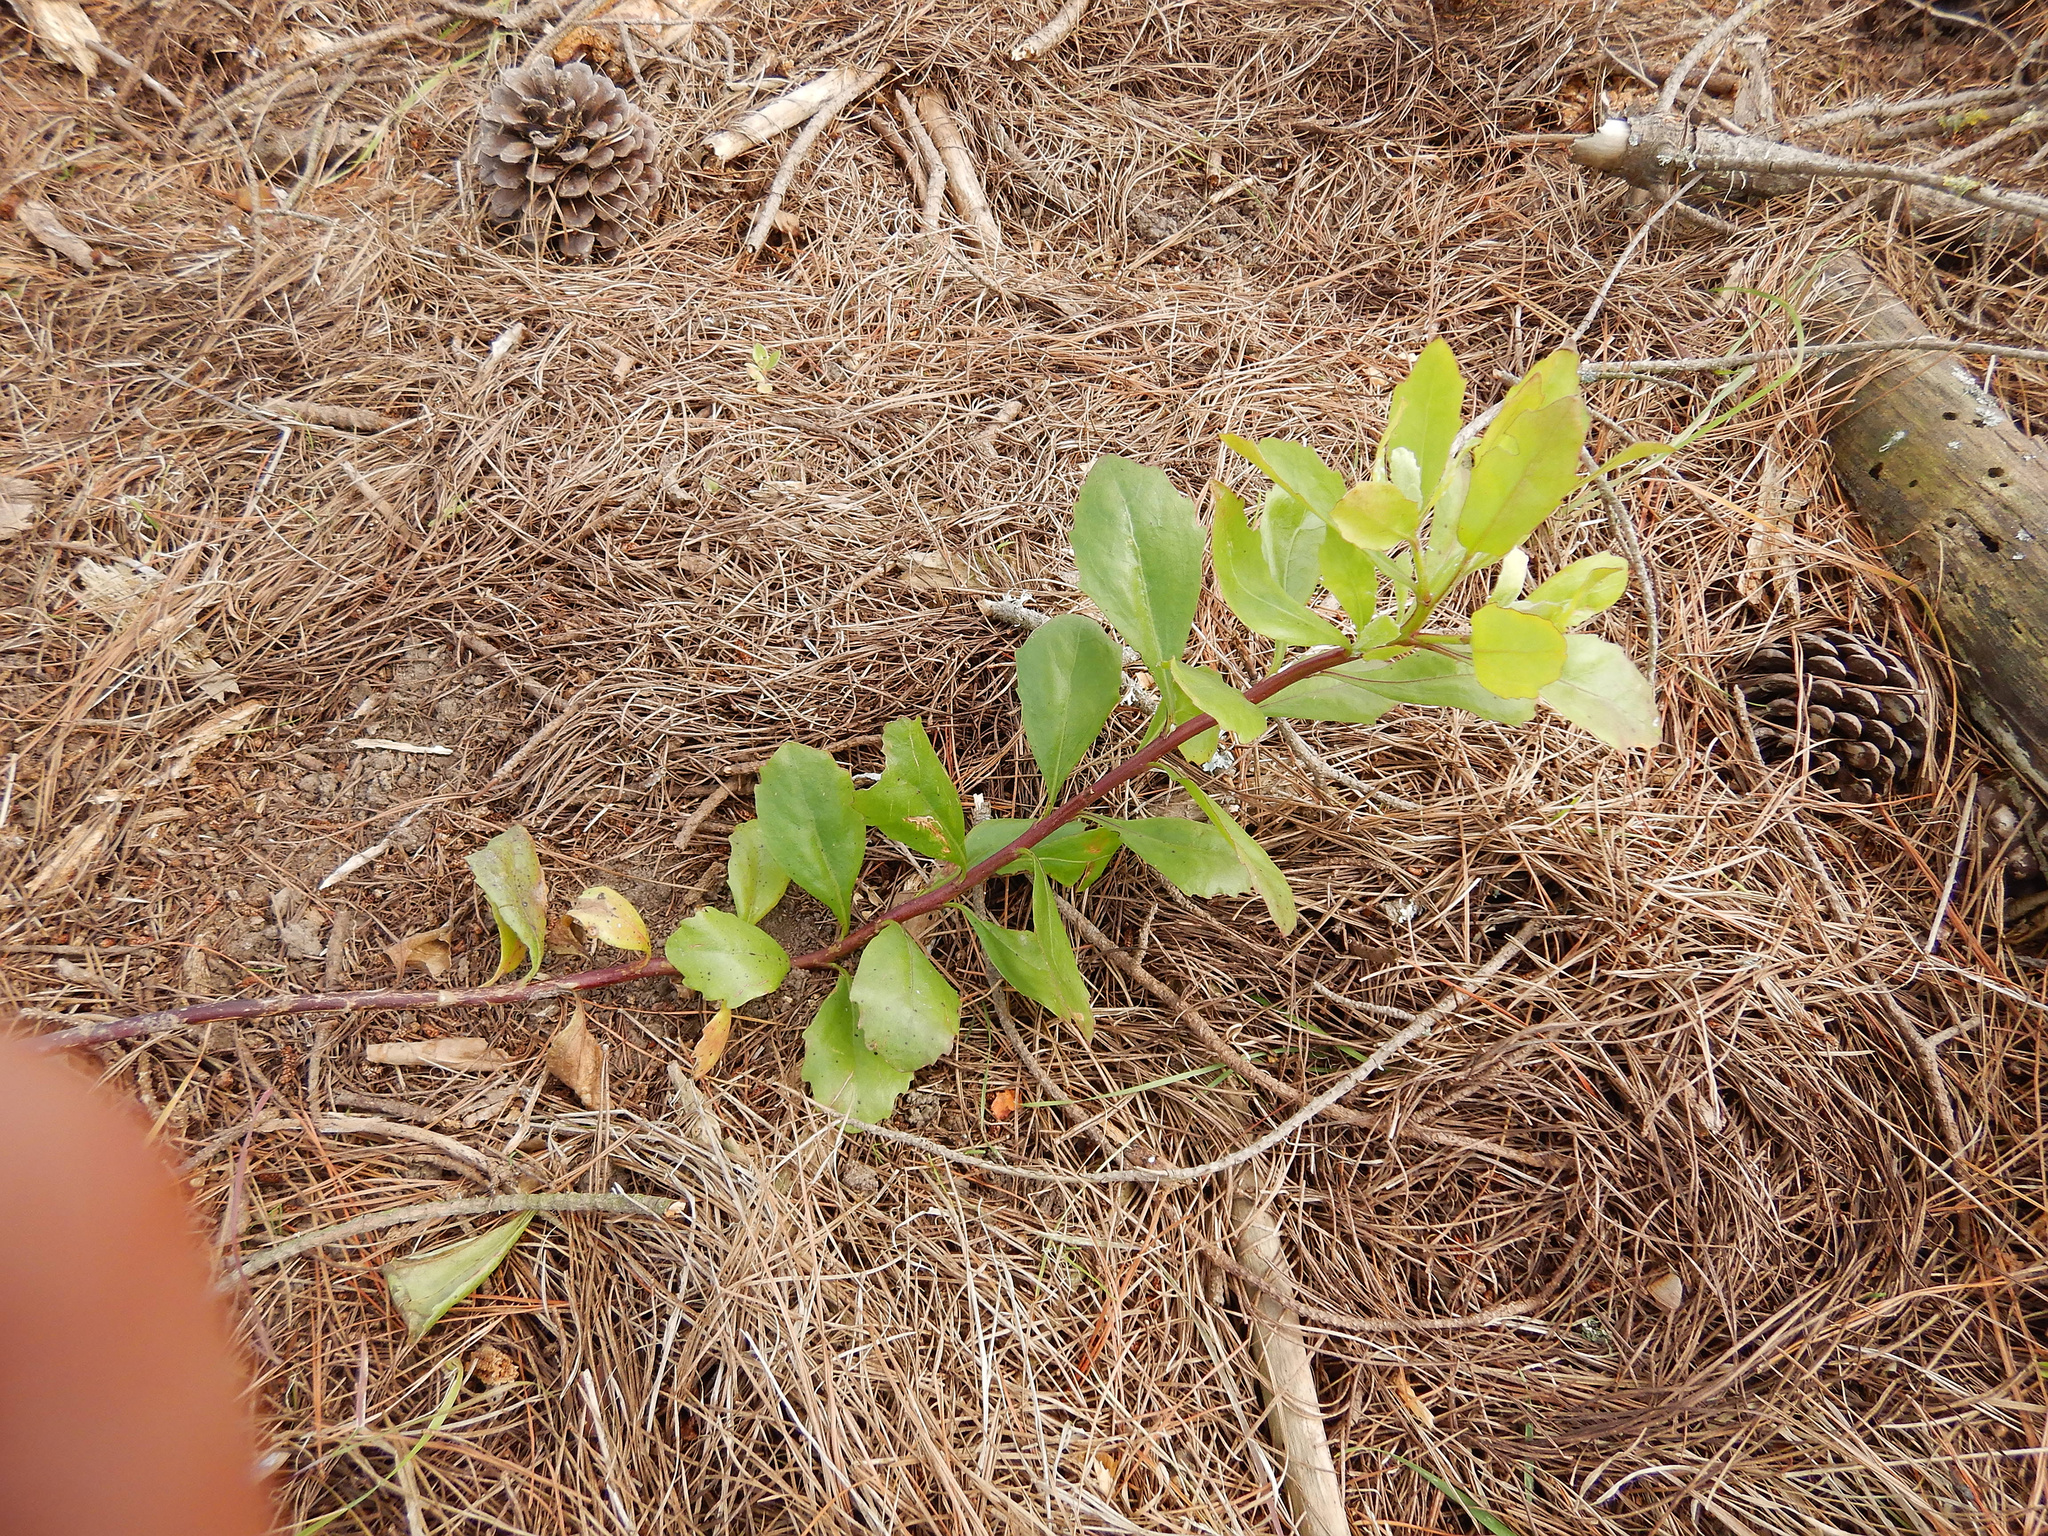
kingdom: Plantae
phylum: Tracheophyta
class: Magnoliopsida
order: Asterales
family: Asteraceae
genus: Osteospermum
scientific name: Osteospermum moniliferum
